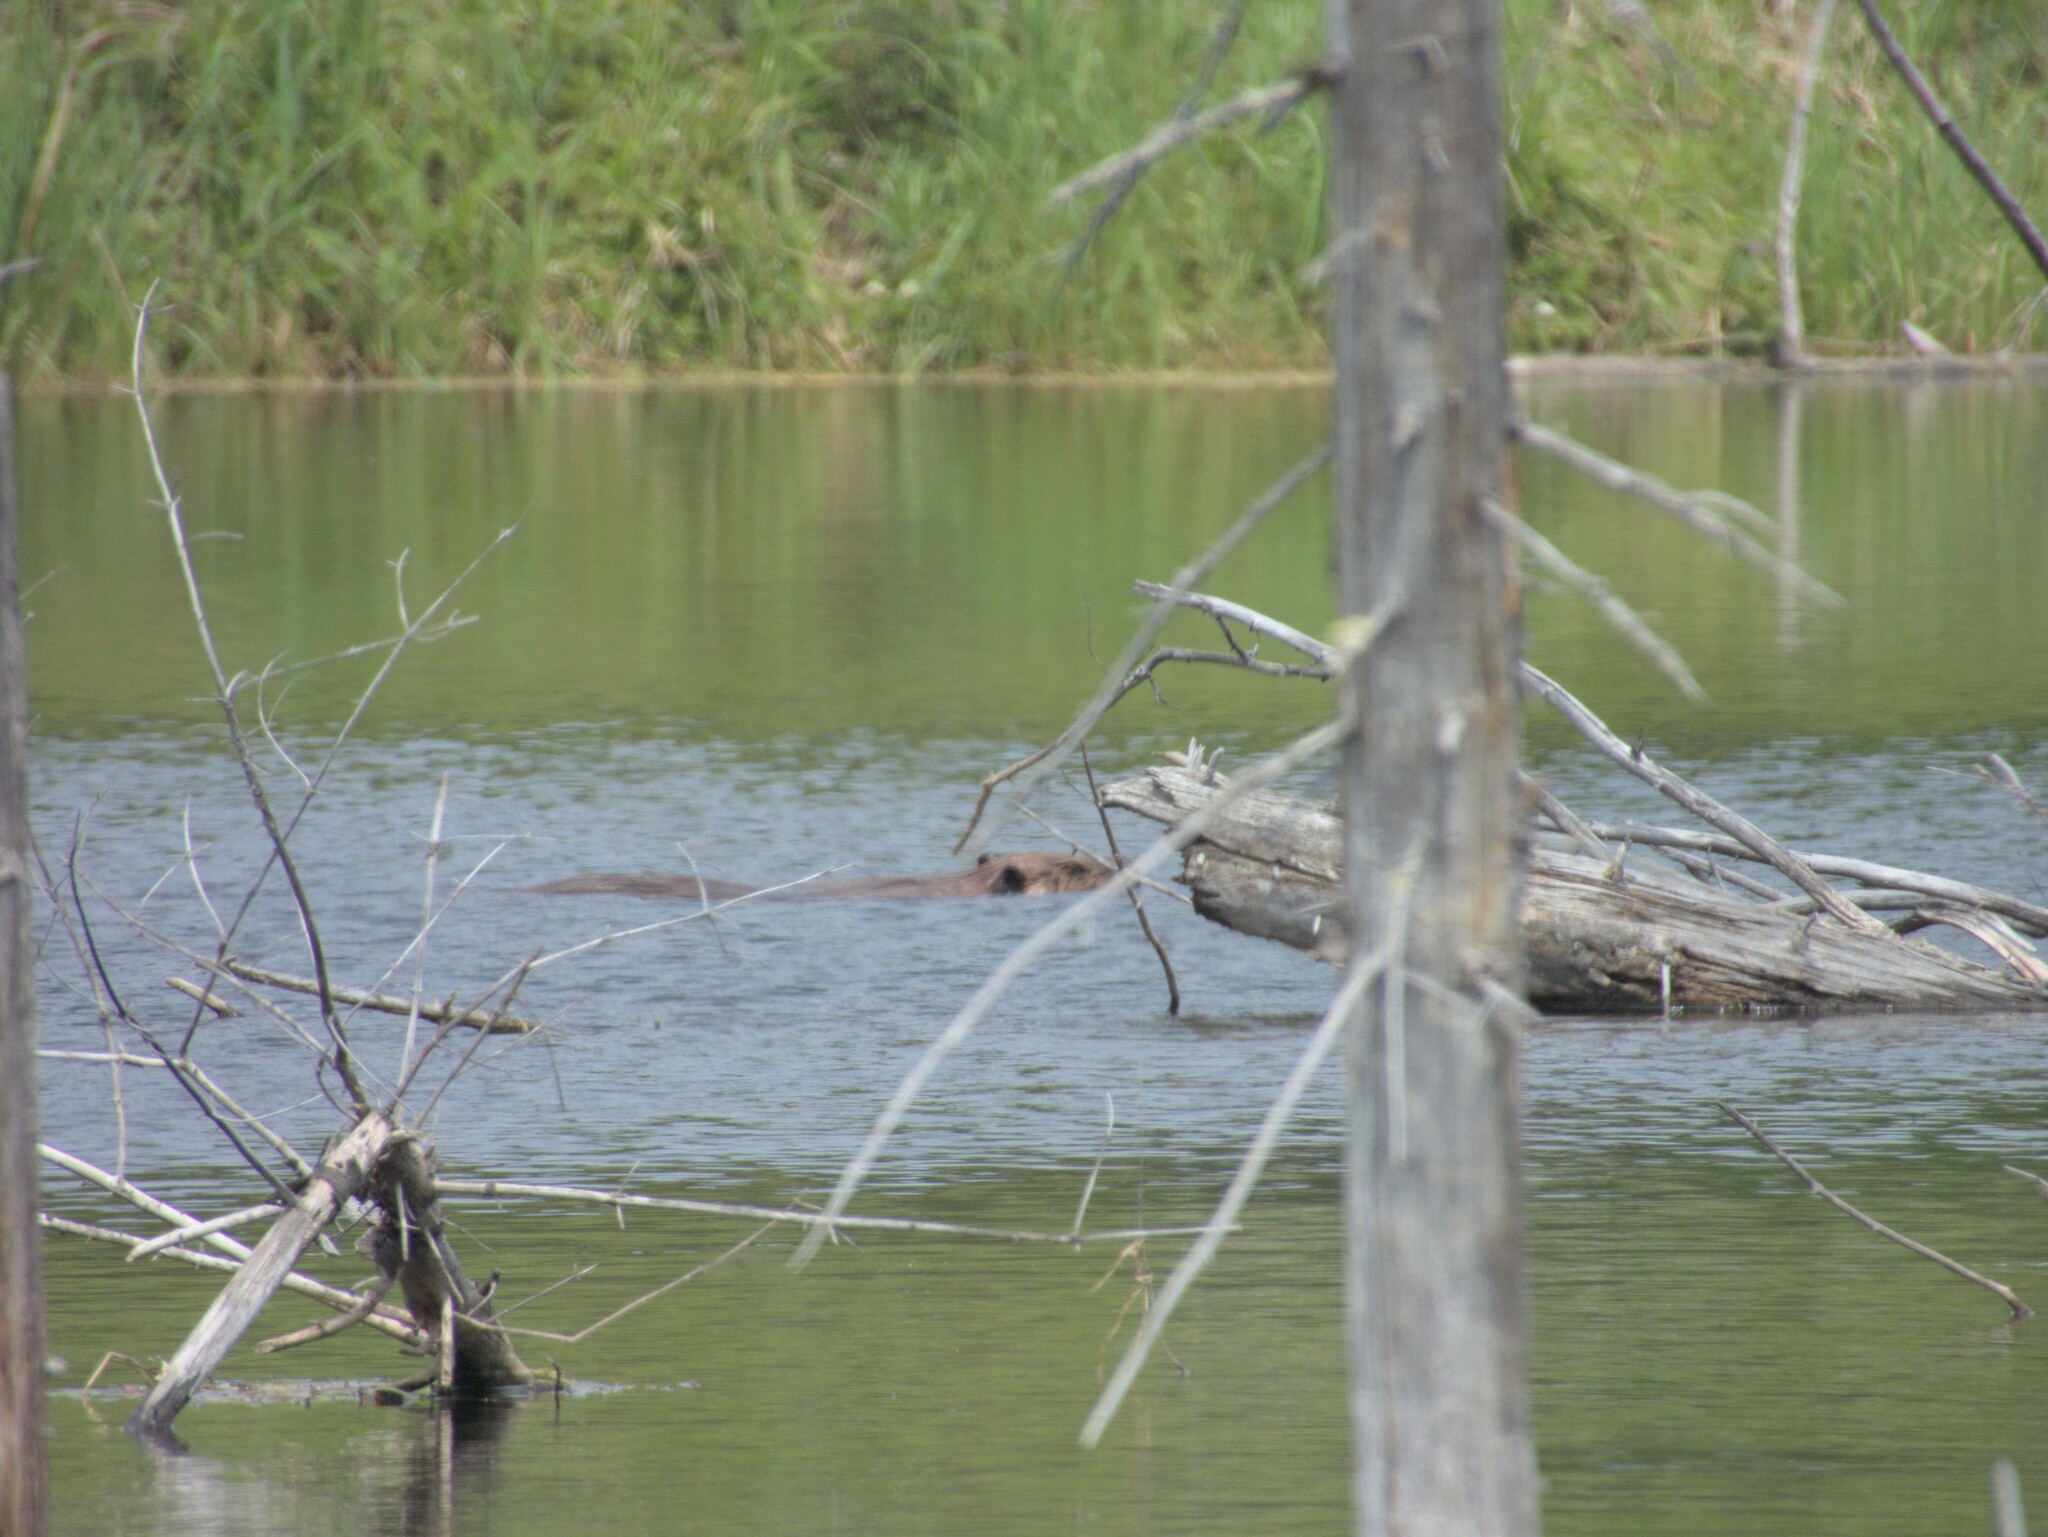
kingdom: Animalia
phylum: Chordata
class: Mammalia
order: Rodentia
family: Castoridae
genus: Castor
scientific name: Castor canadensis
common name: American beaver
